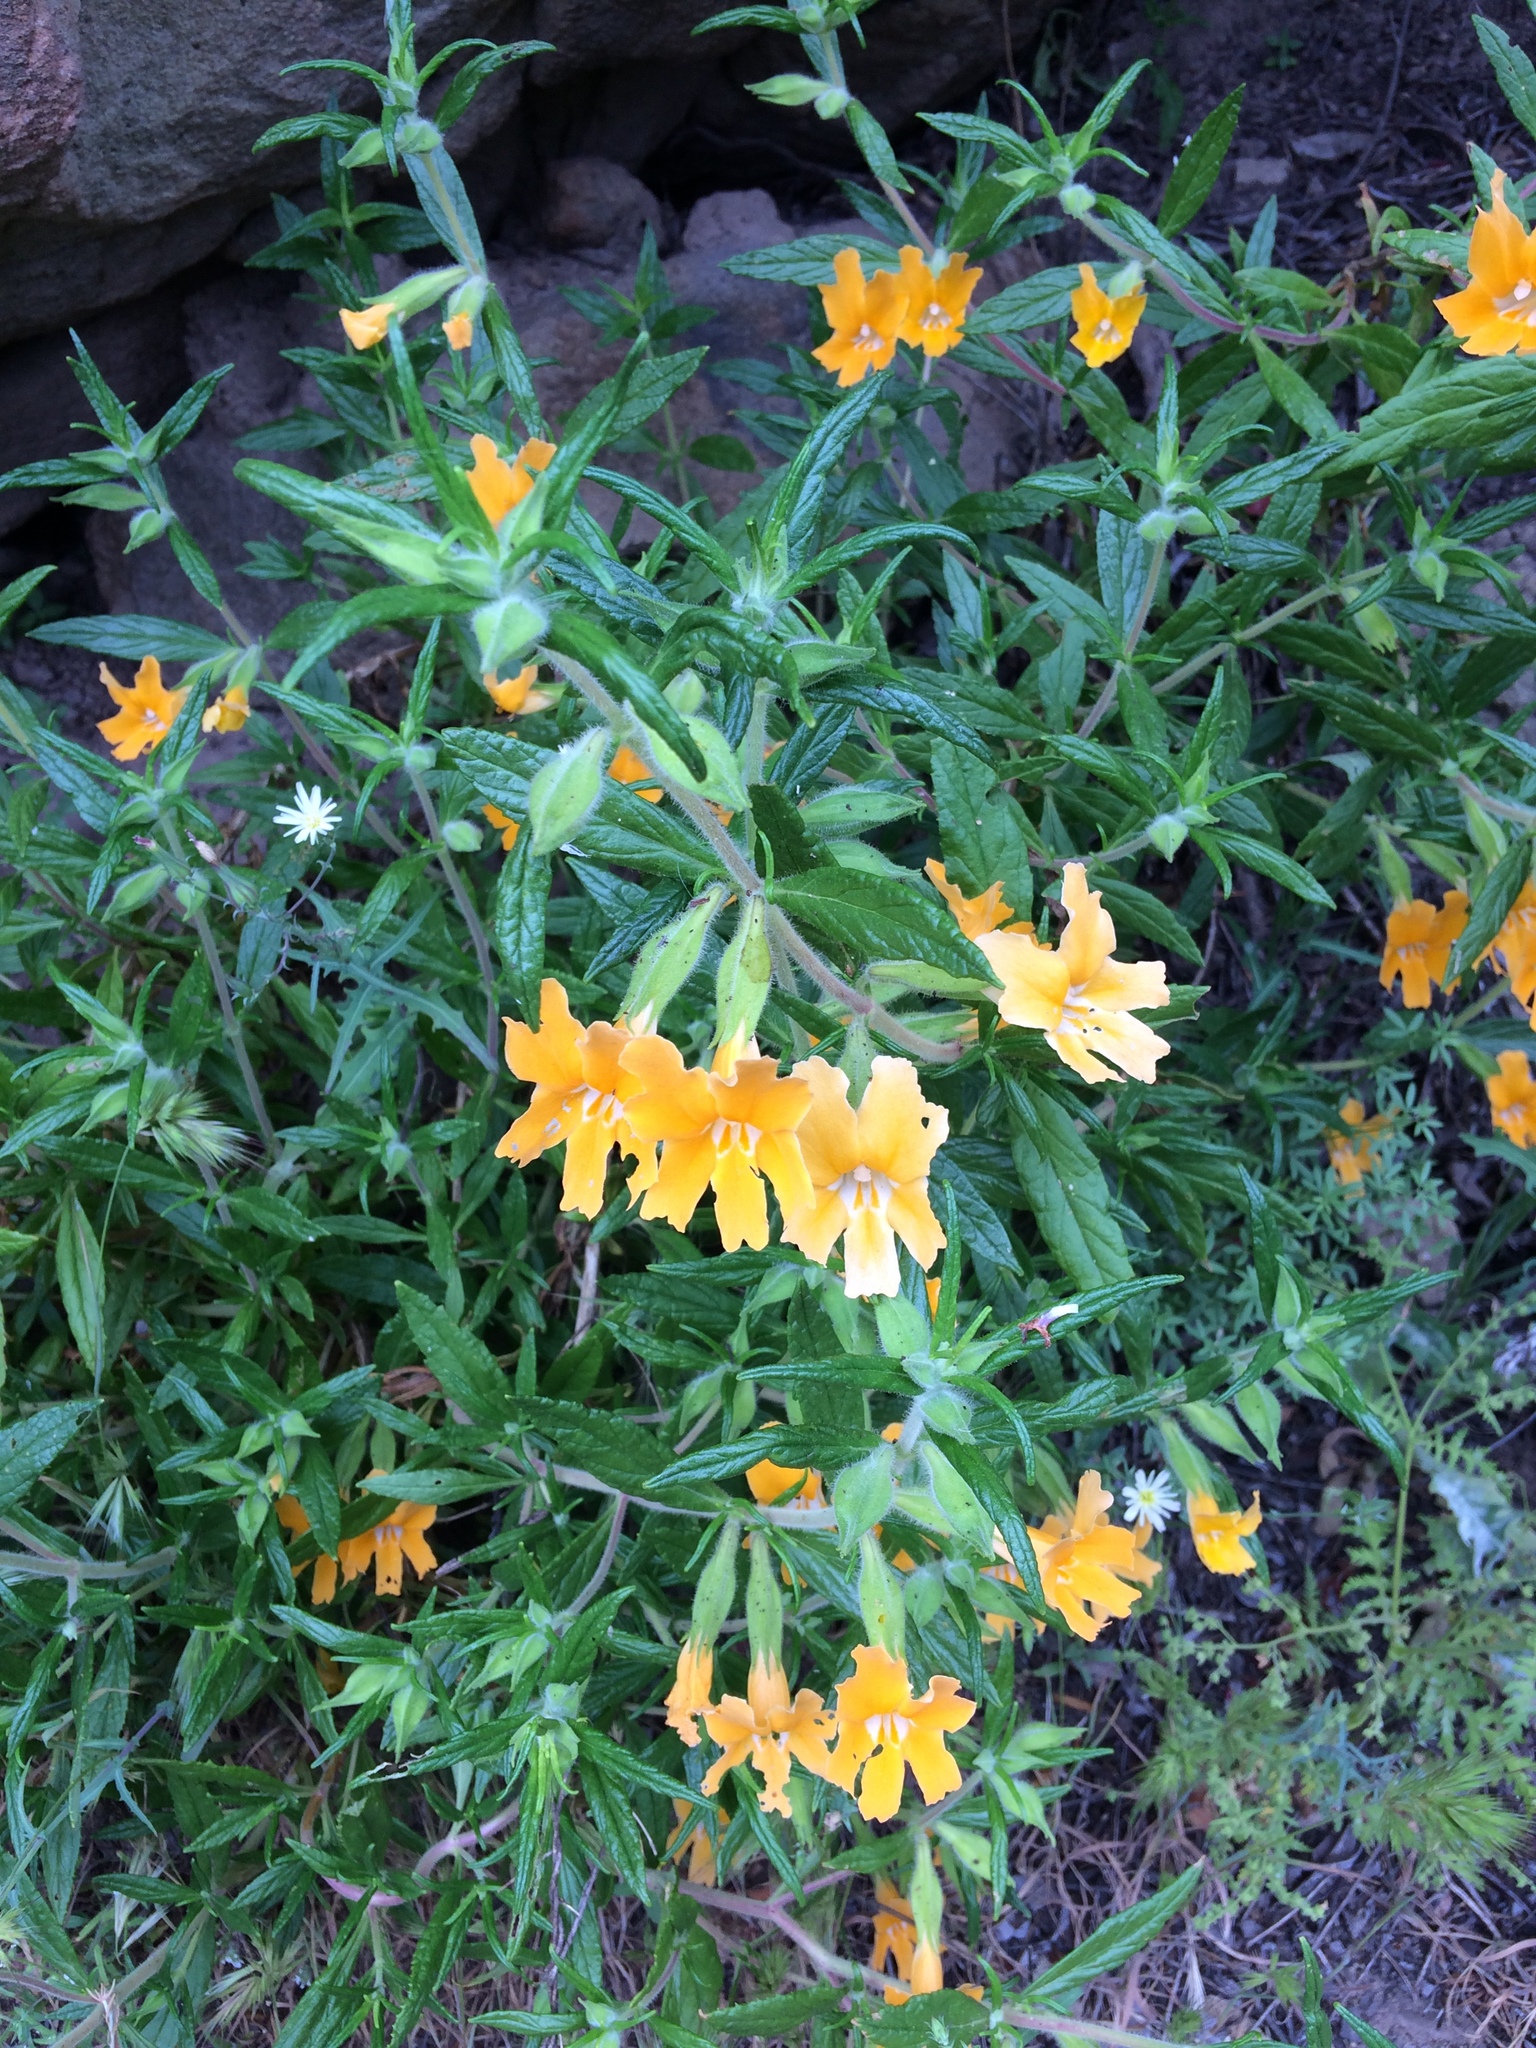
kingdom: Plantae
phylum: Tracheophyta
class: Magnoliopsida
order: Lamiales
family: Phrymaceae
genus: Diplacus
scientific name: Diplacus longiflorus
